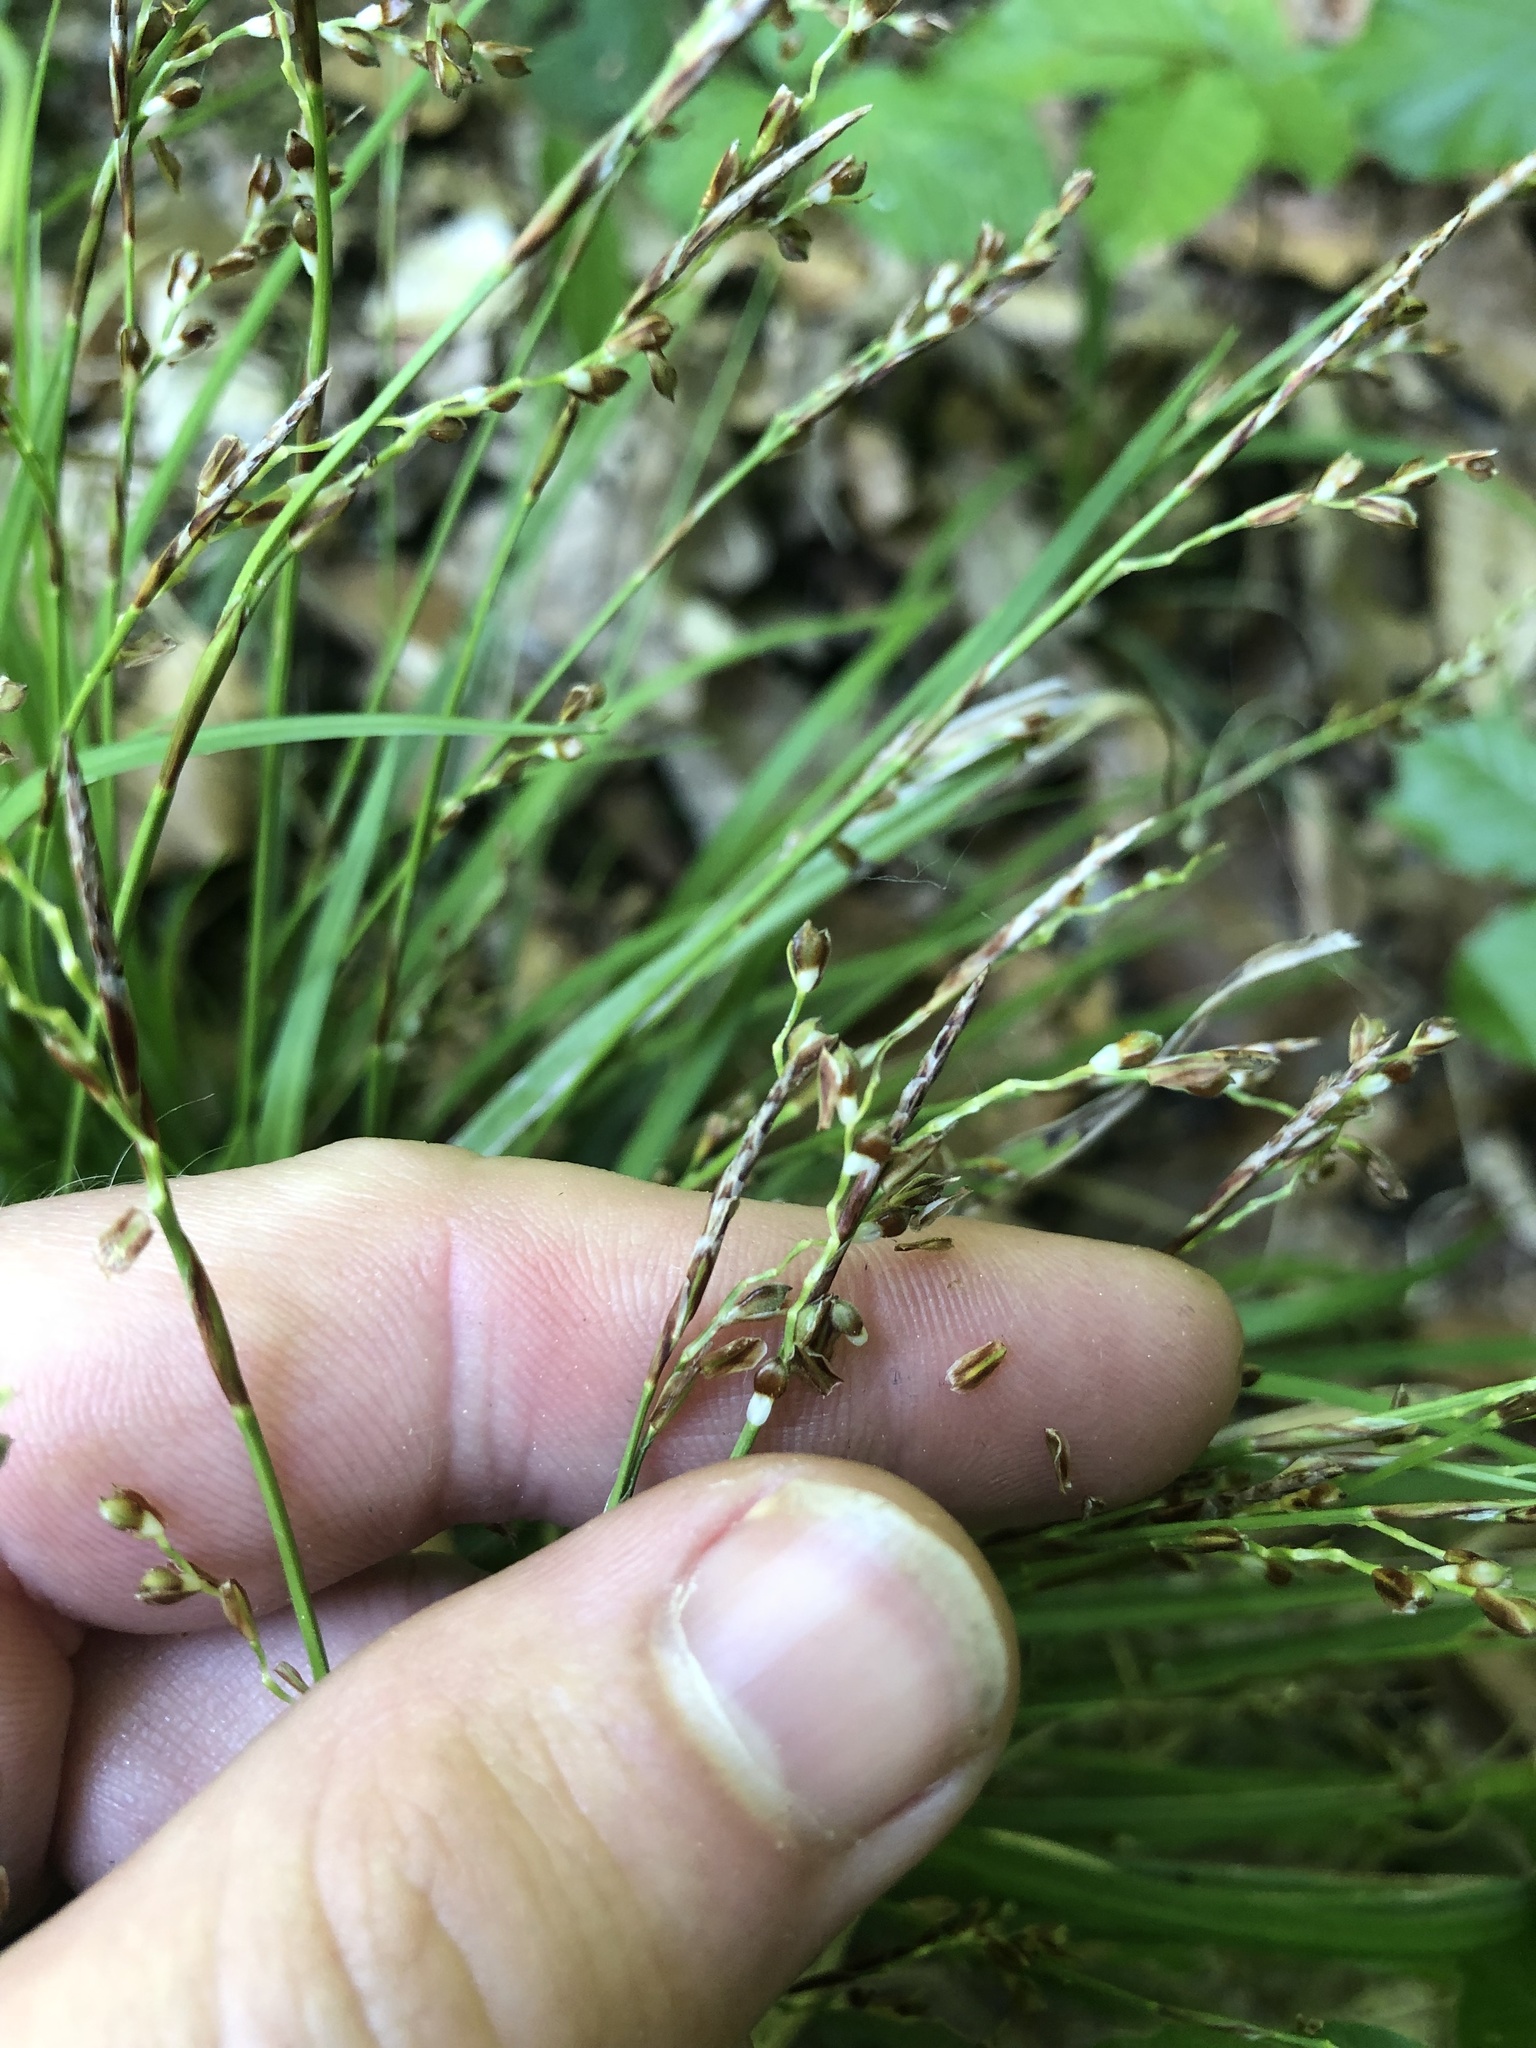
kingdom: Plantae
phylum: Tracheophyta
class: Liliopsida
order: Poales
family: Cyperaceae
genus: Carex
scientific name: Carex digitata
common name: Fingered sedge
